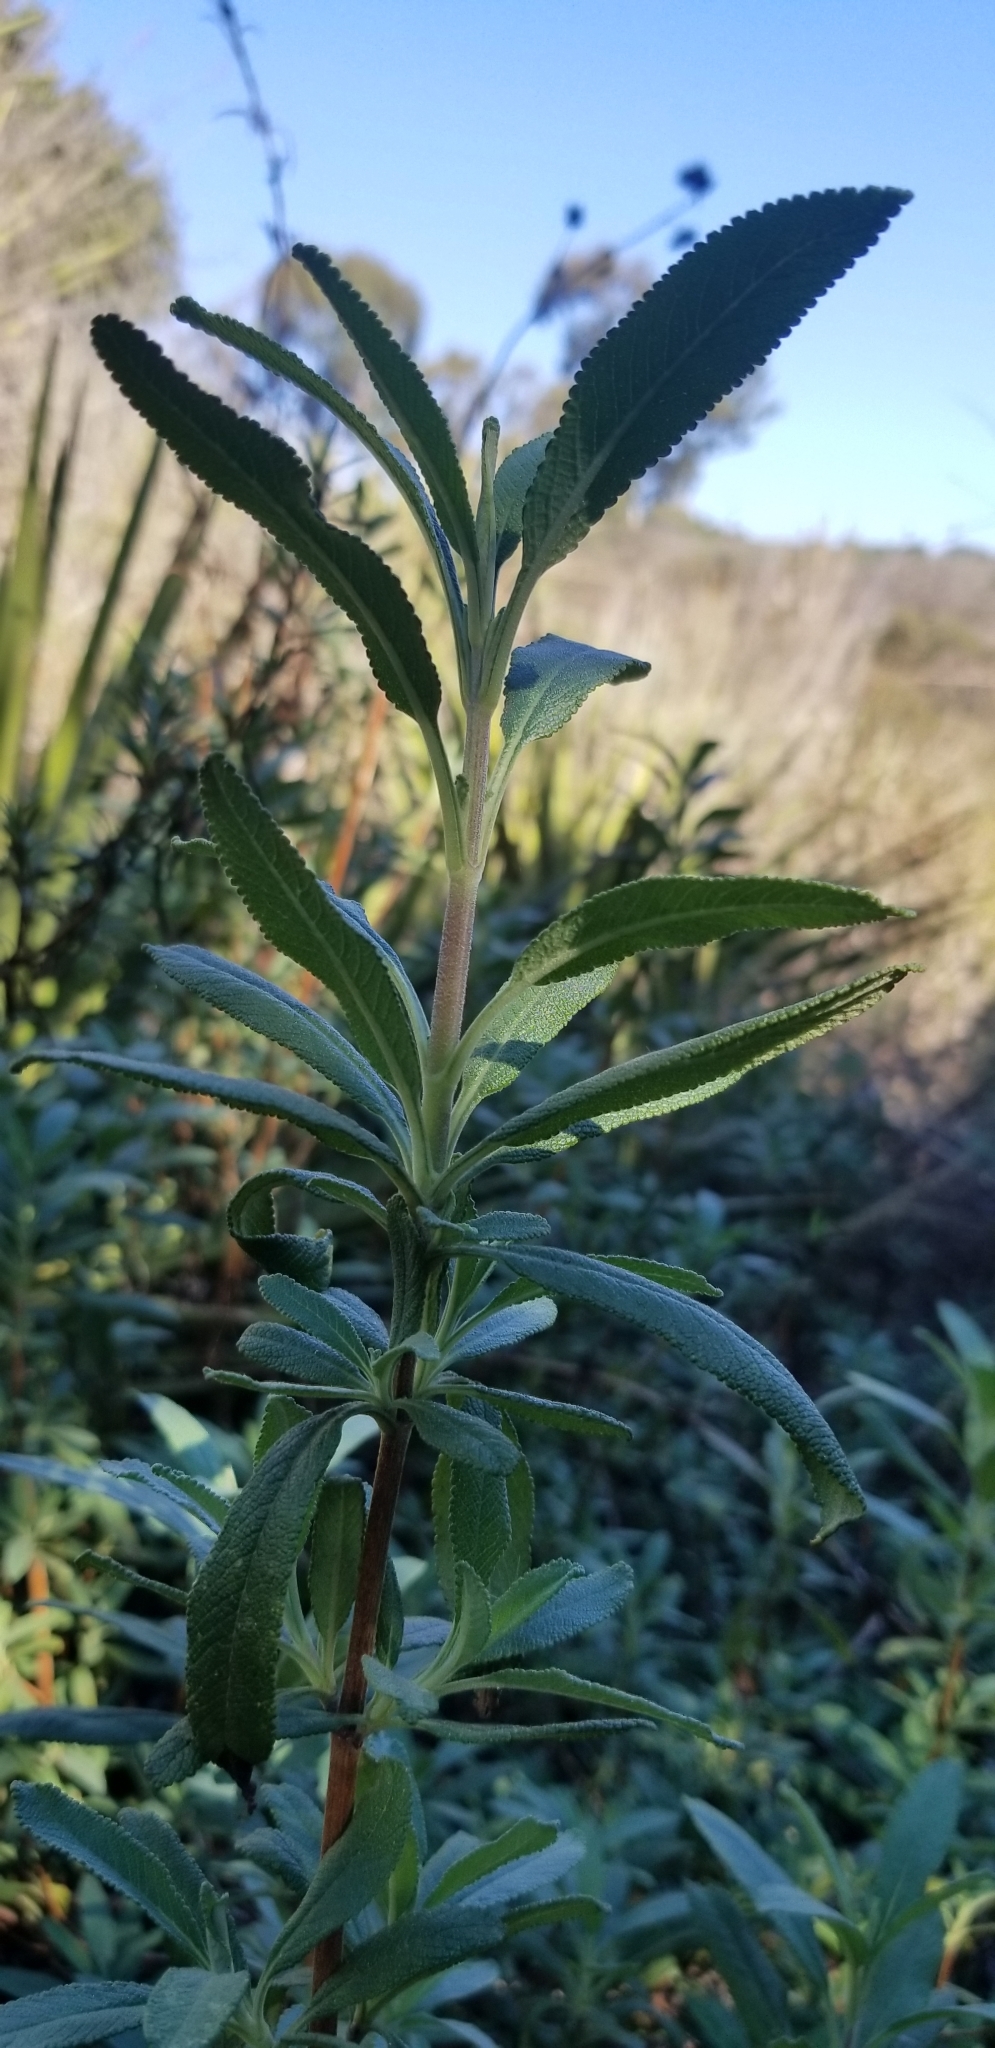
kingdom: Plantae
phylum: Tracheophyta
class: Magnoliopsida
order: Lamiales
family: Lamiaceae
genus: Salvia
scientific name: Salvia mellifera
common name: Black sage
